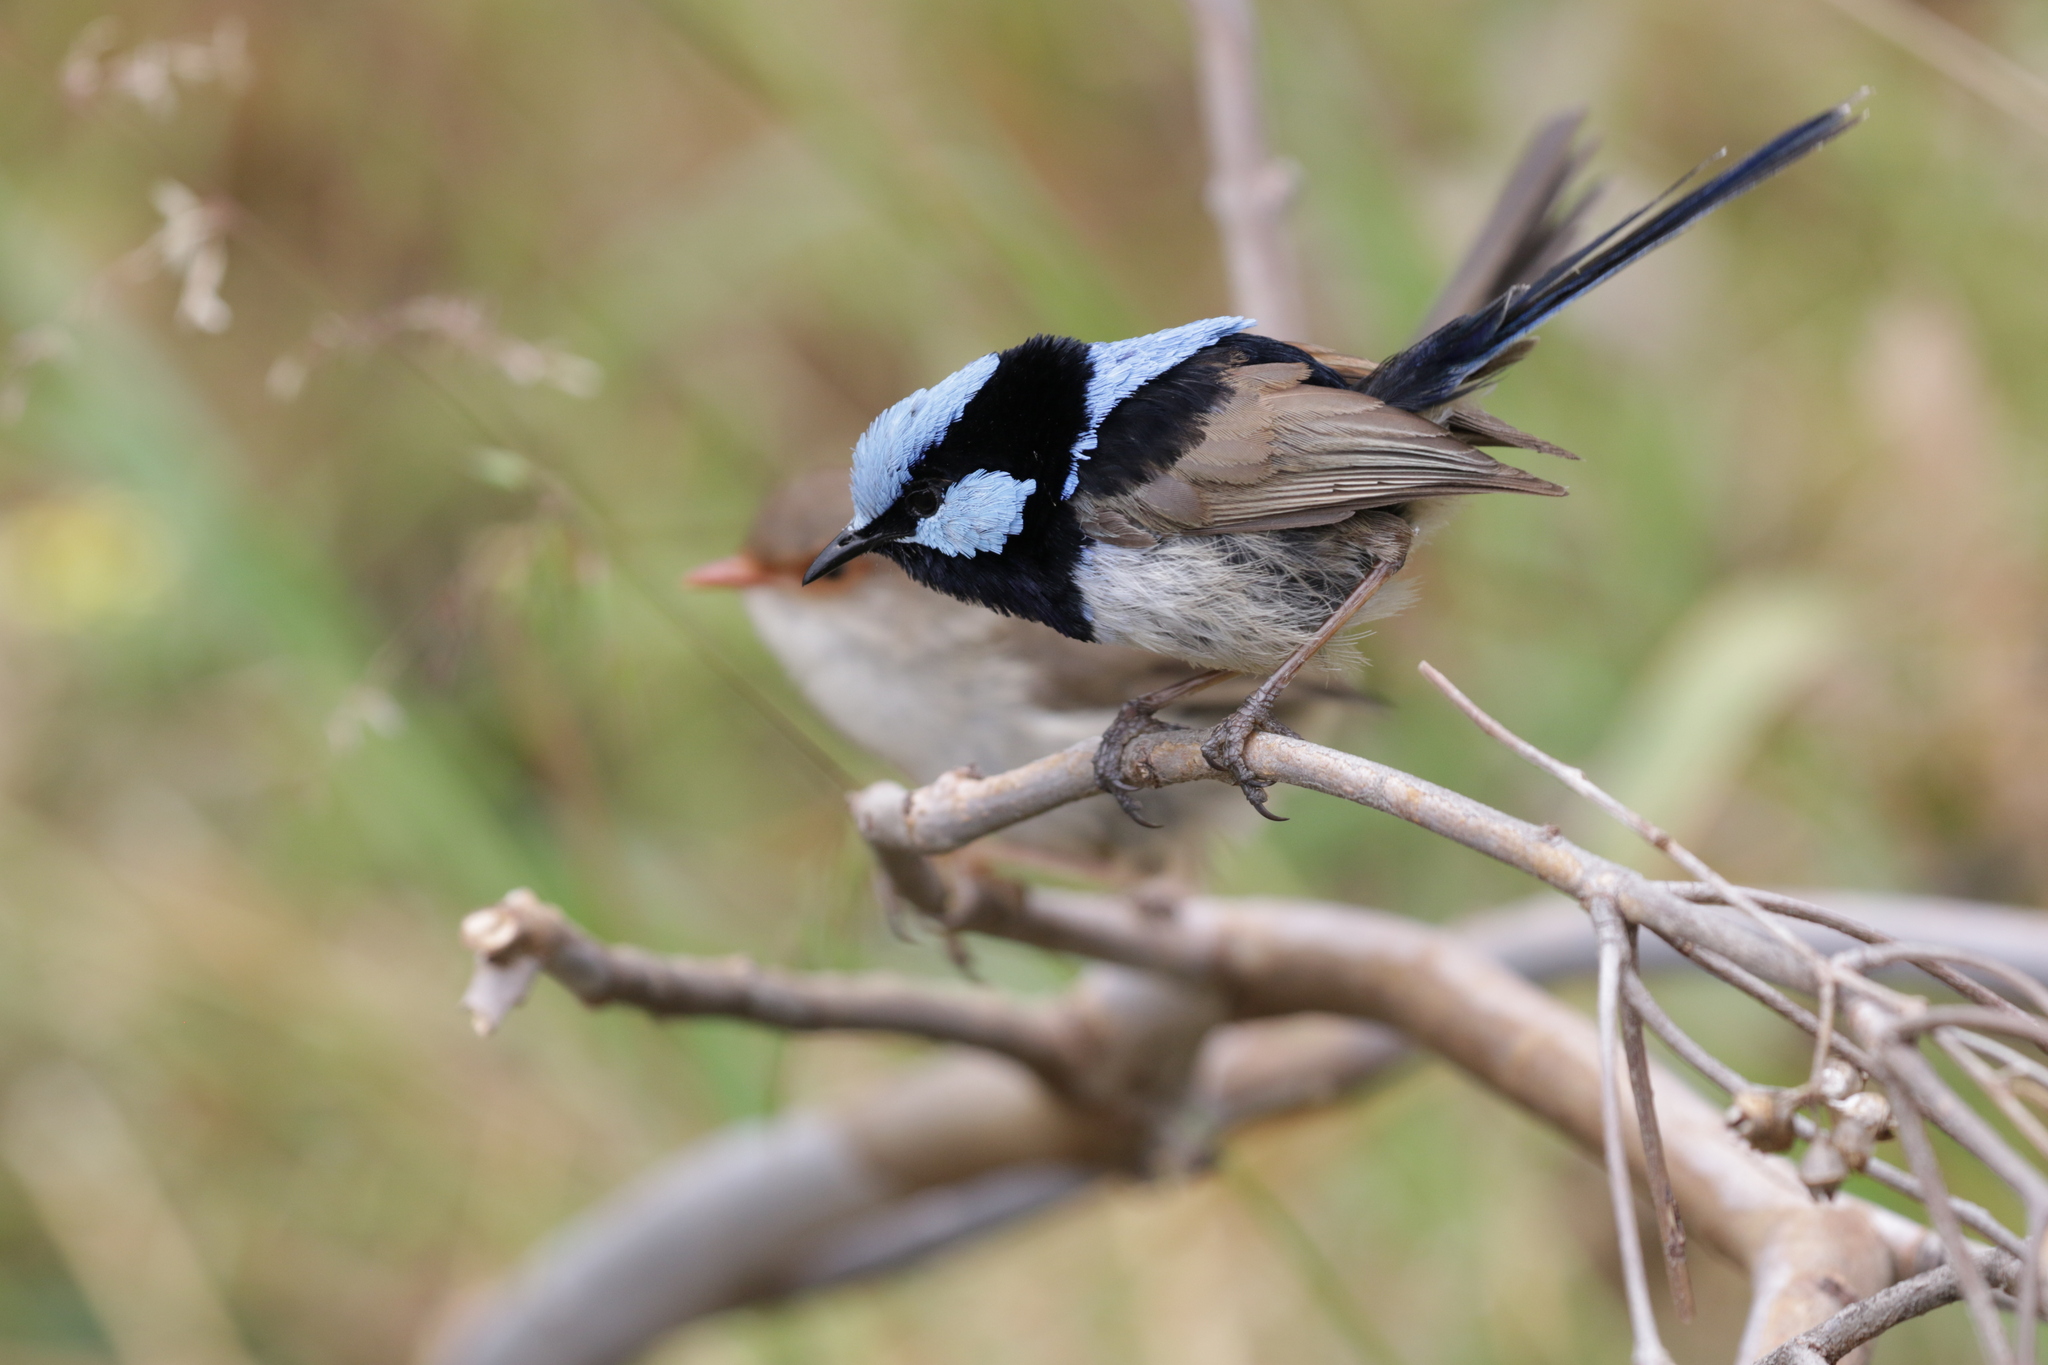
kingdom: Animalia
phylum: Chordata
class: Aves
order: Passeriformes
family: Maluridae
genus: Malurus
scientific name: Malurus cyaneus
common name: Superb fairywren
